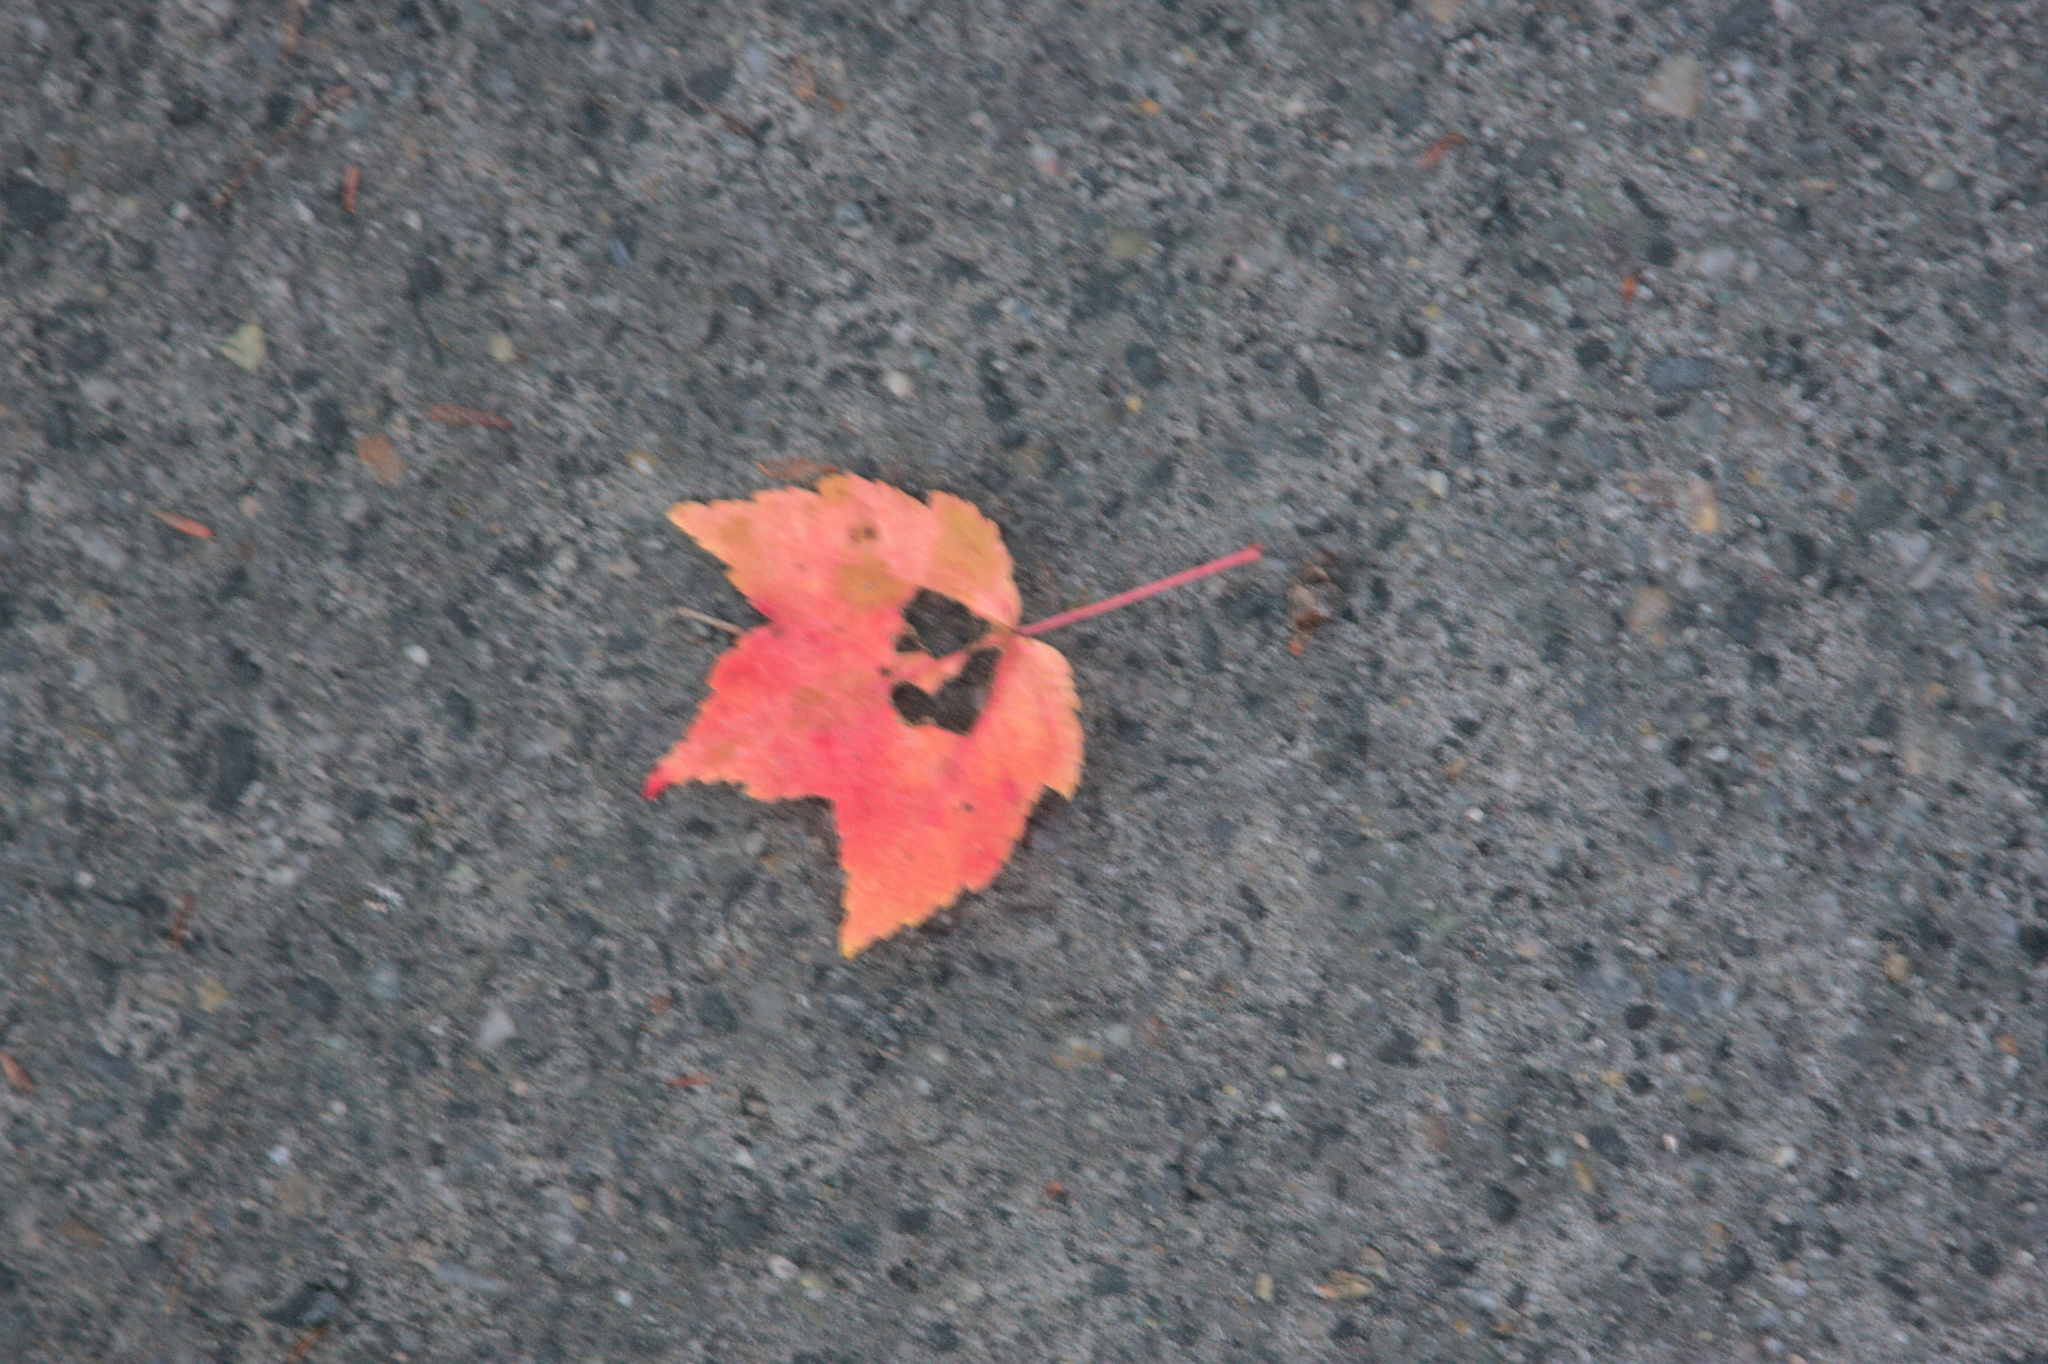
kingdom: Plantae
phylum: Tracheophyta
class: Magnoliopsida
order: Sapindales
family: Sapindaceae
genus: Acer
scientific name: Acer rubrum
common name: Red maple
